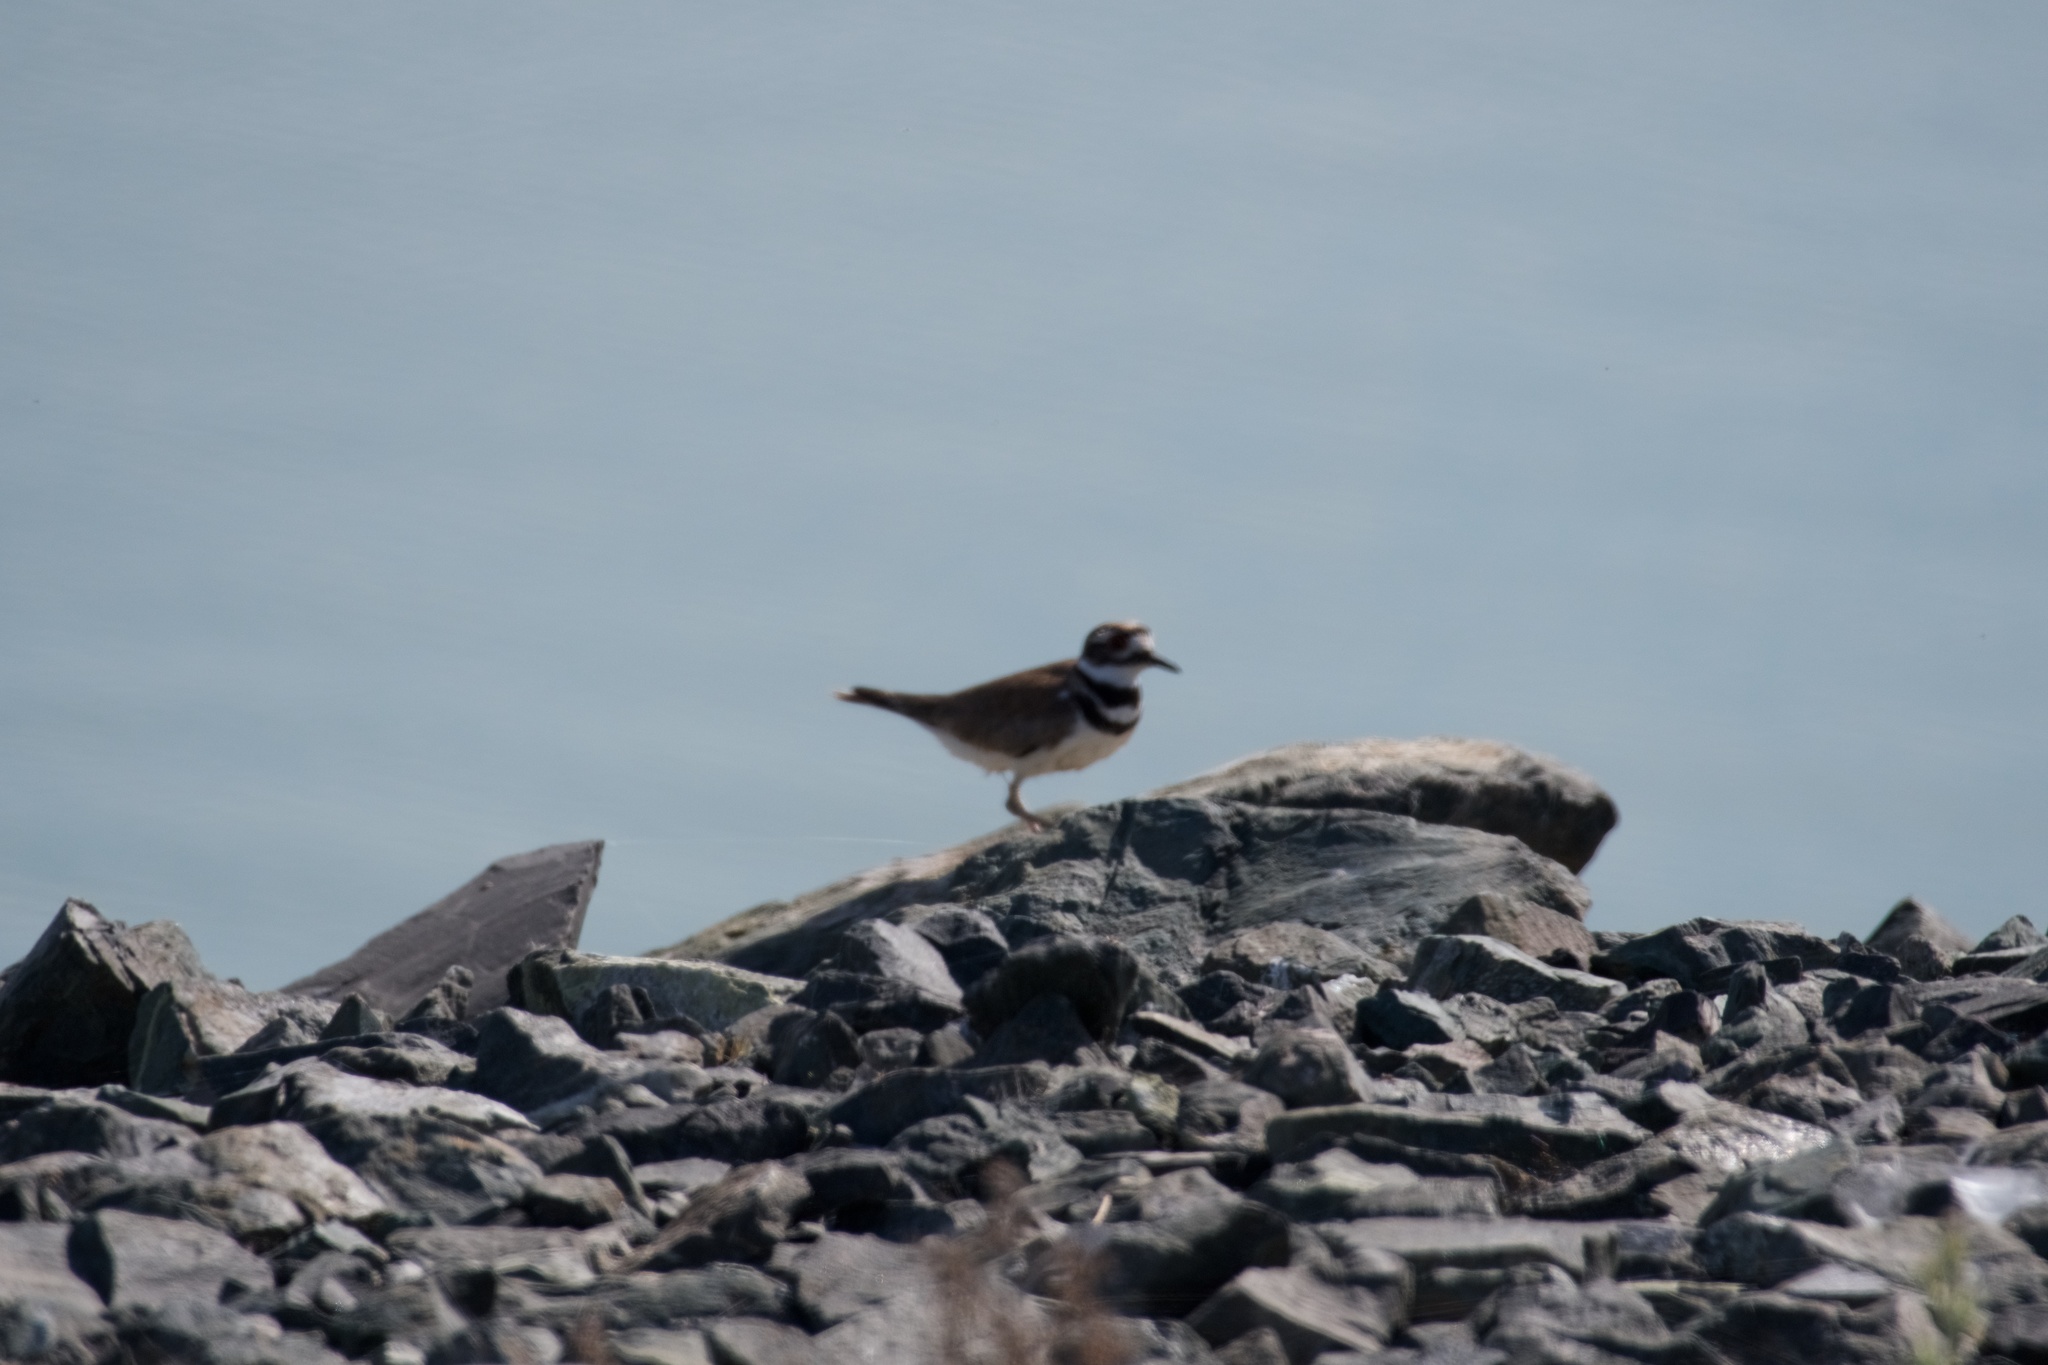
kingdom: Animalia
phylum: Chordata
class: Aves
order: Charadriiformes
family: Charadriidae
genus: Charadrius
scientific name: Charadrius vociferus
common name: Killdeer
